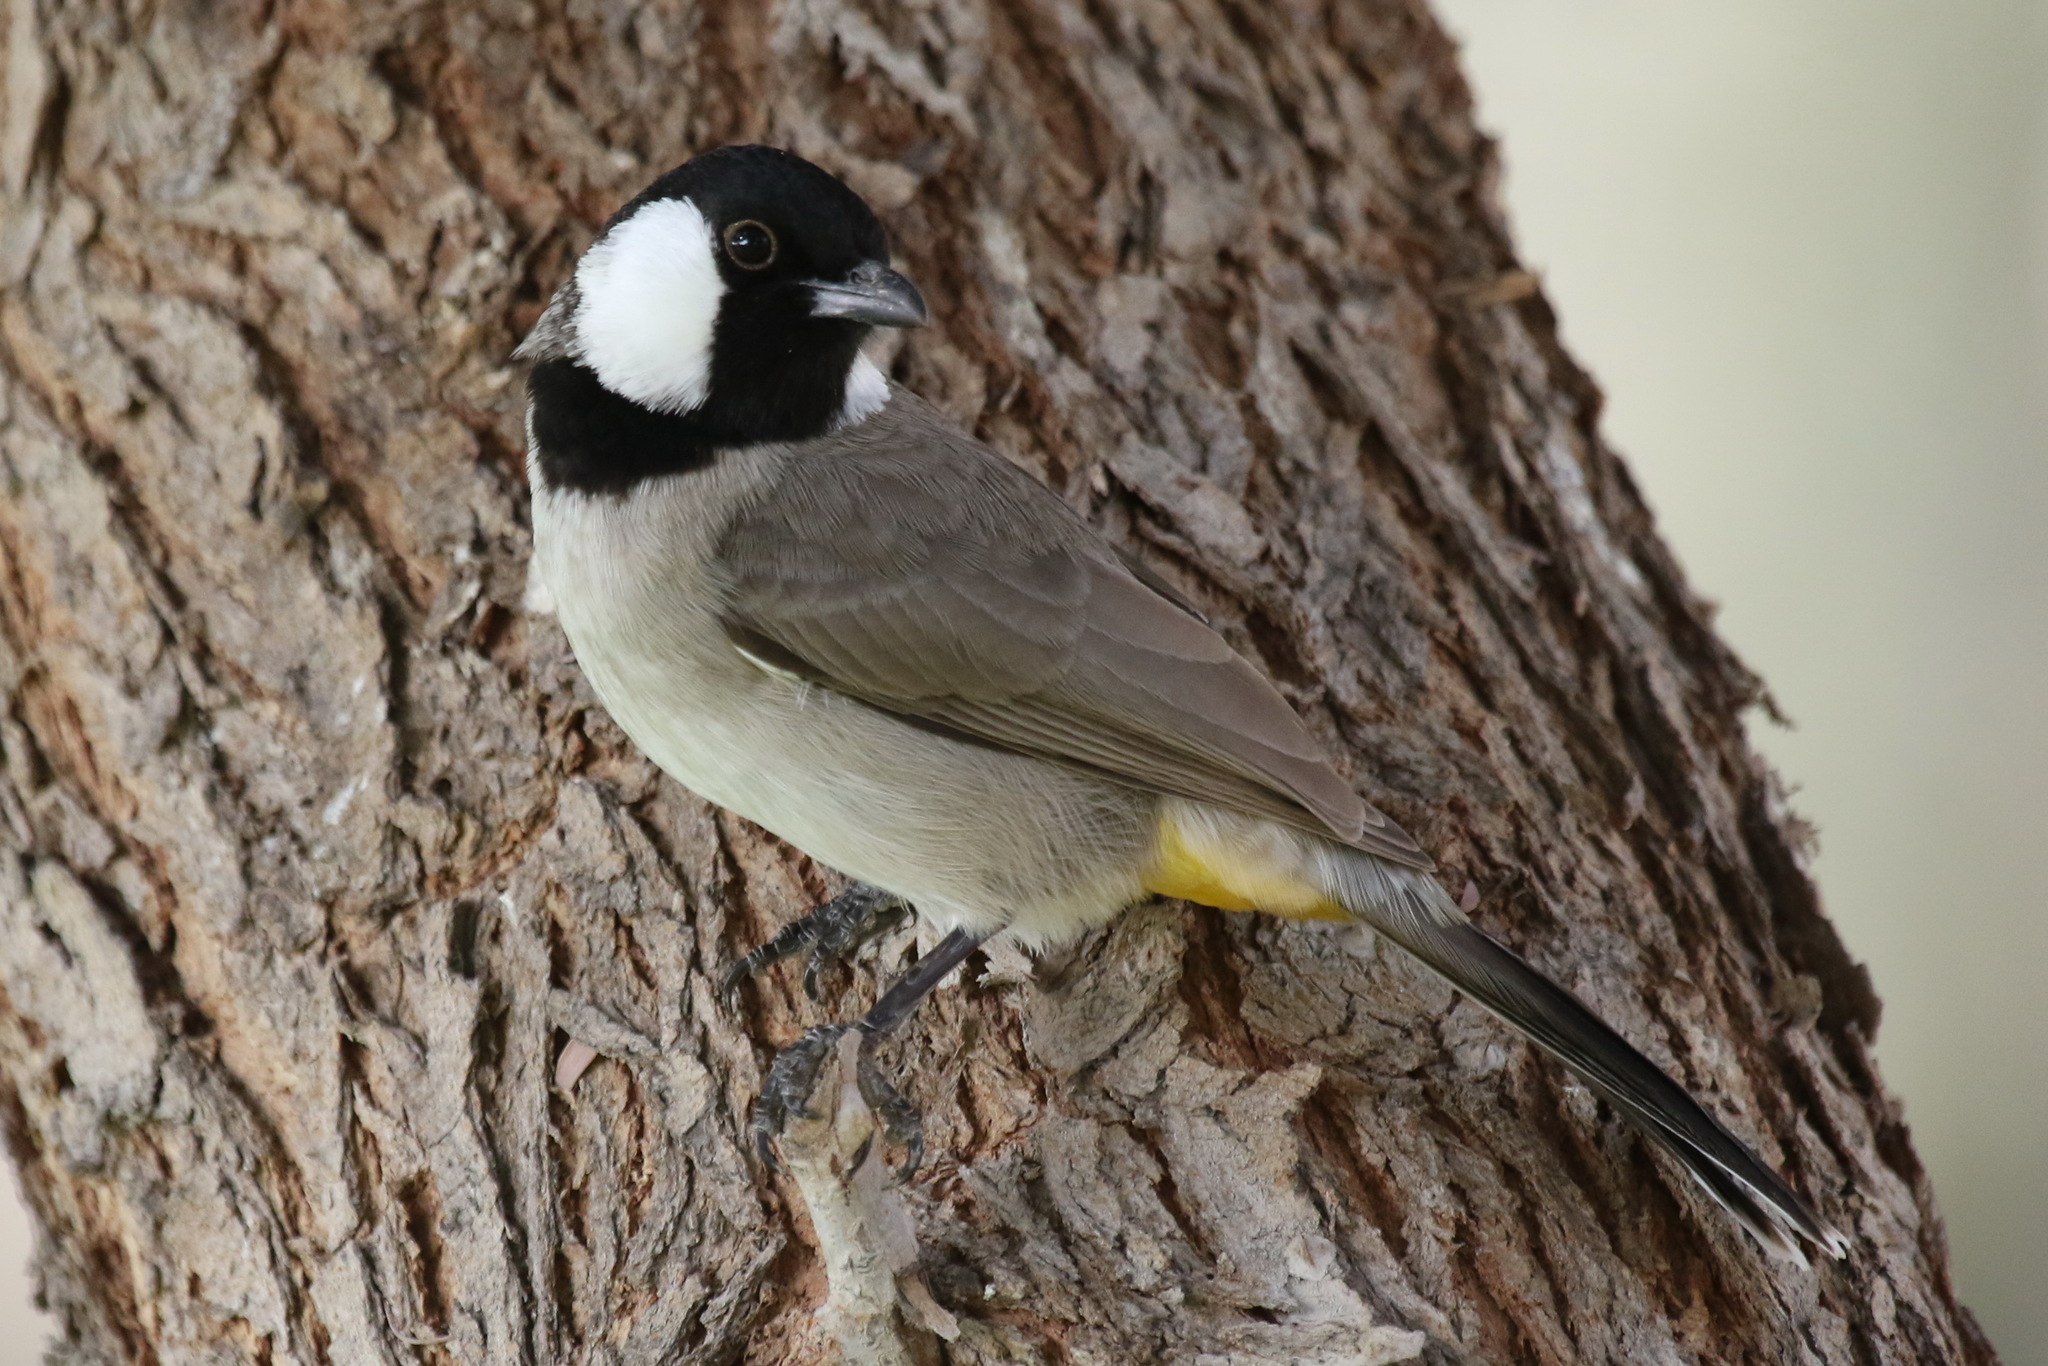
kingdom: Animalia
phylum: Chordata
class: Aves
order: Passeriformes
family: Pycnonotidae
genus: Pycnonotus
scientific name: Pycnonotus leucotis
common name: White-eared bulbul
